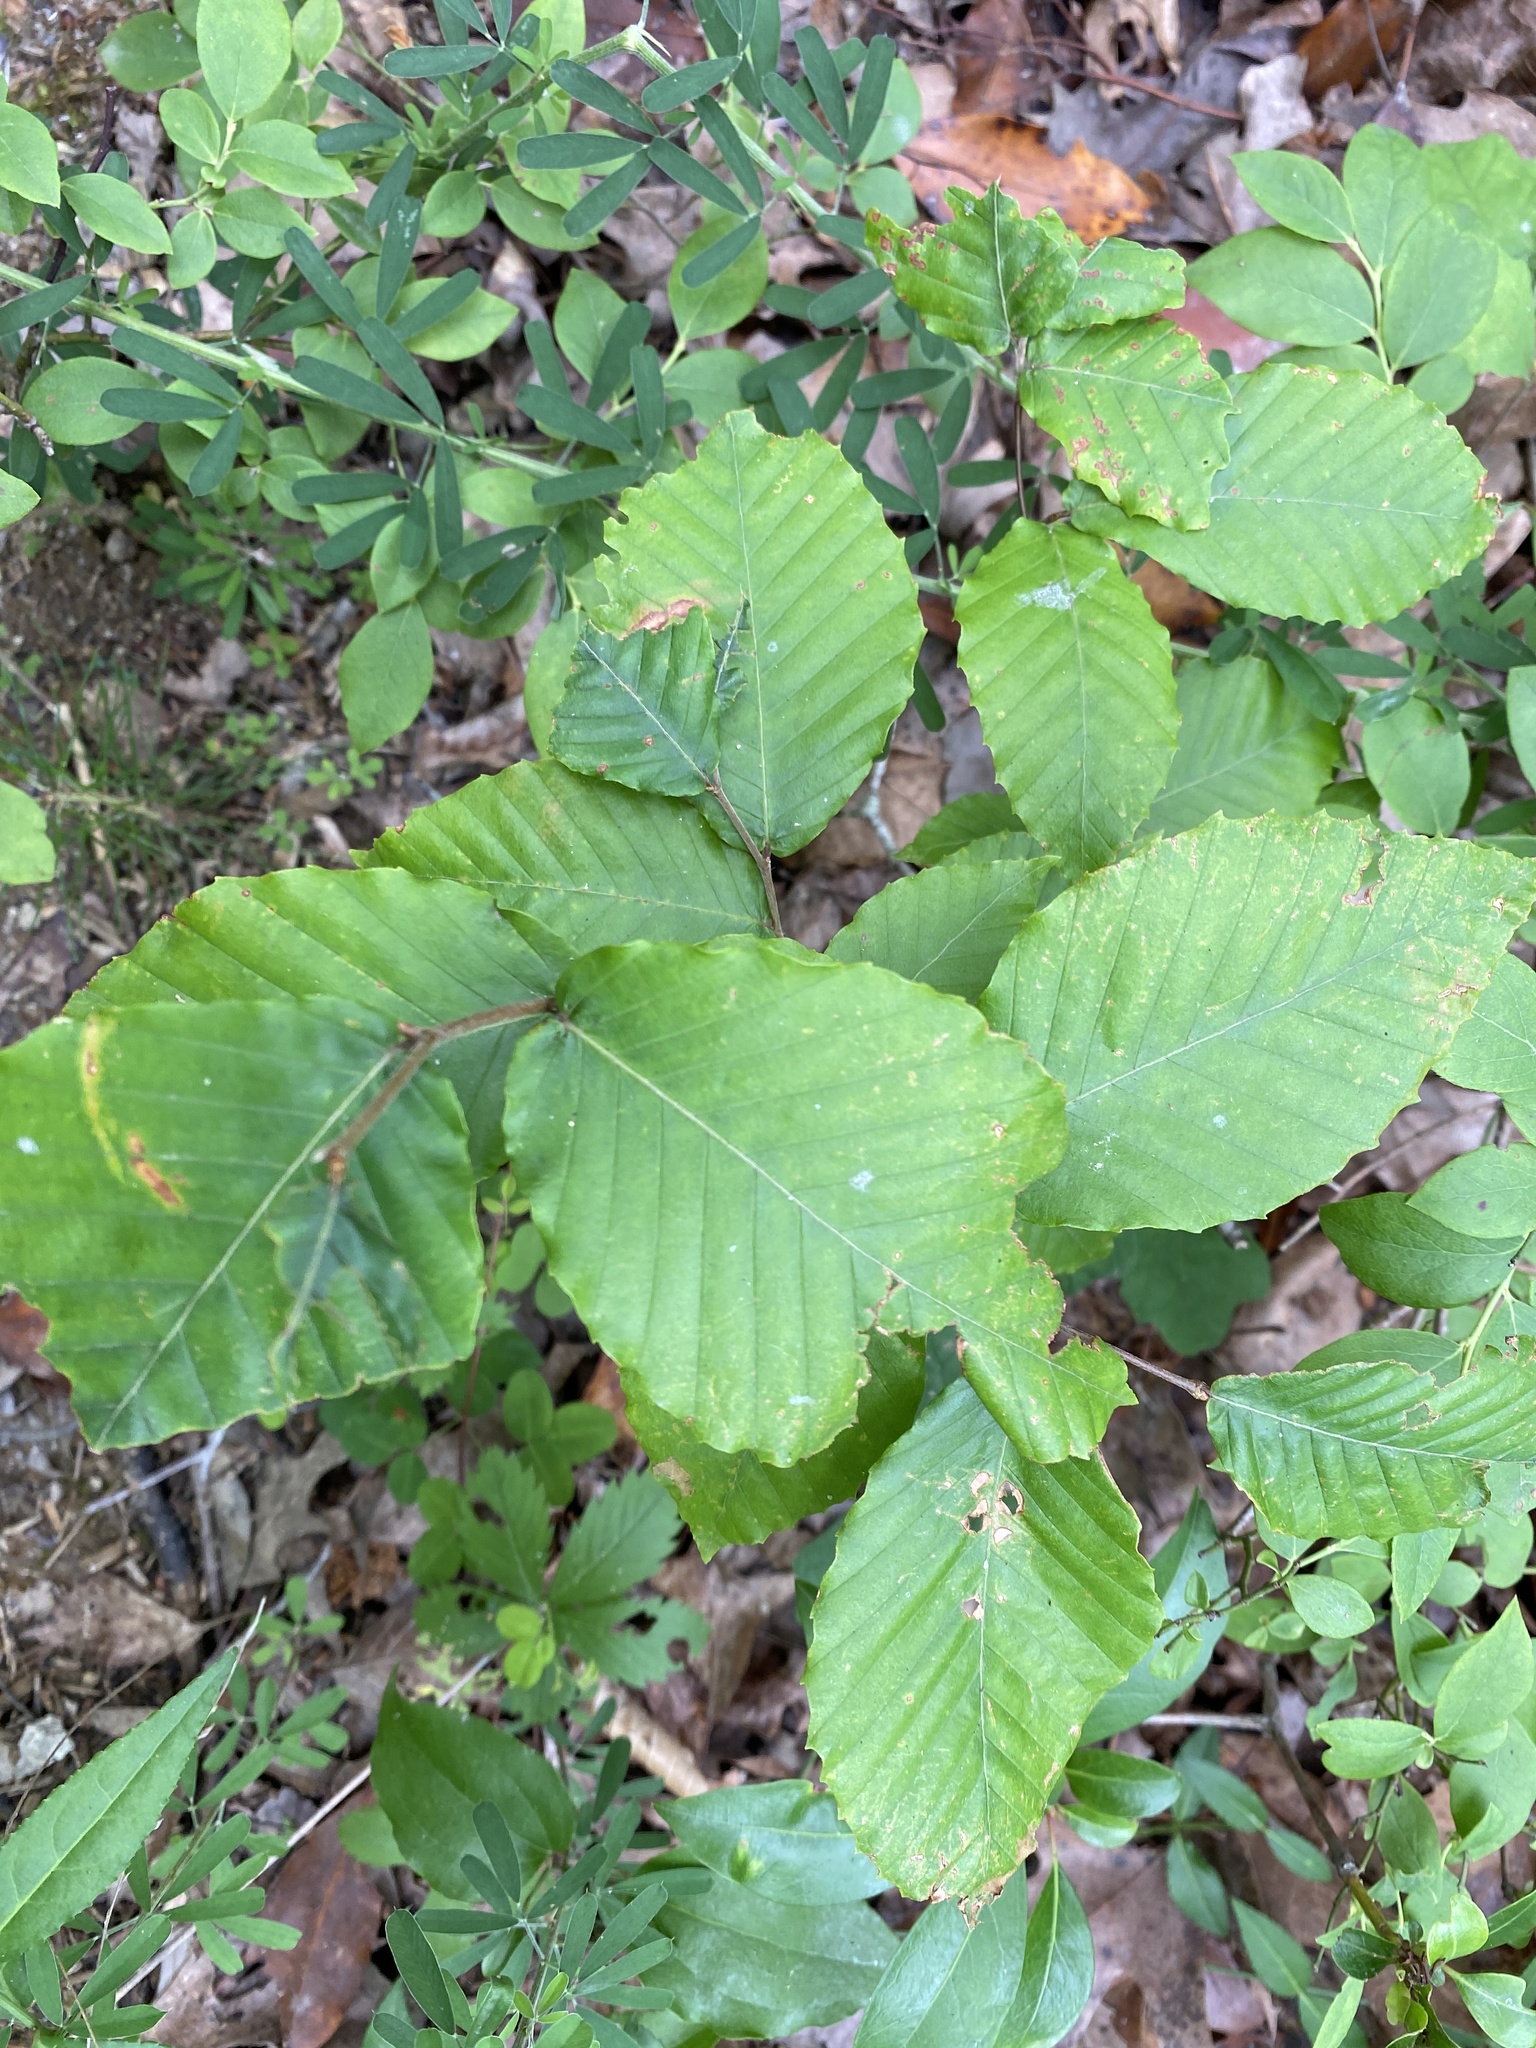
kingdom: Plantae
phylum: Tracheophyta
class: Magnoliopsida
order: Fagales
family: Fagaceae
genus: Fagus
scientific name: Fagus grandifolia
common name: American beech
